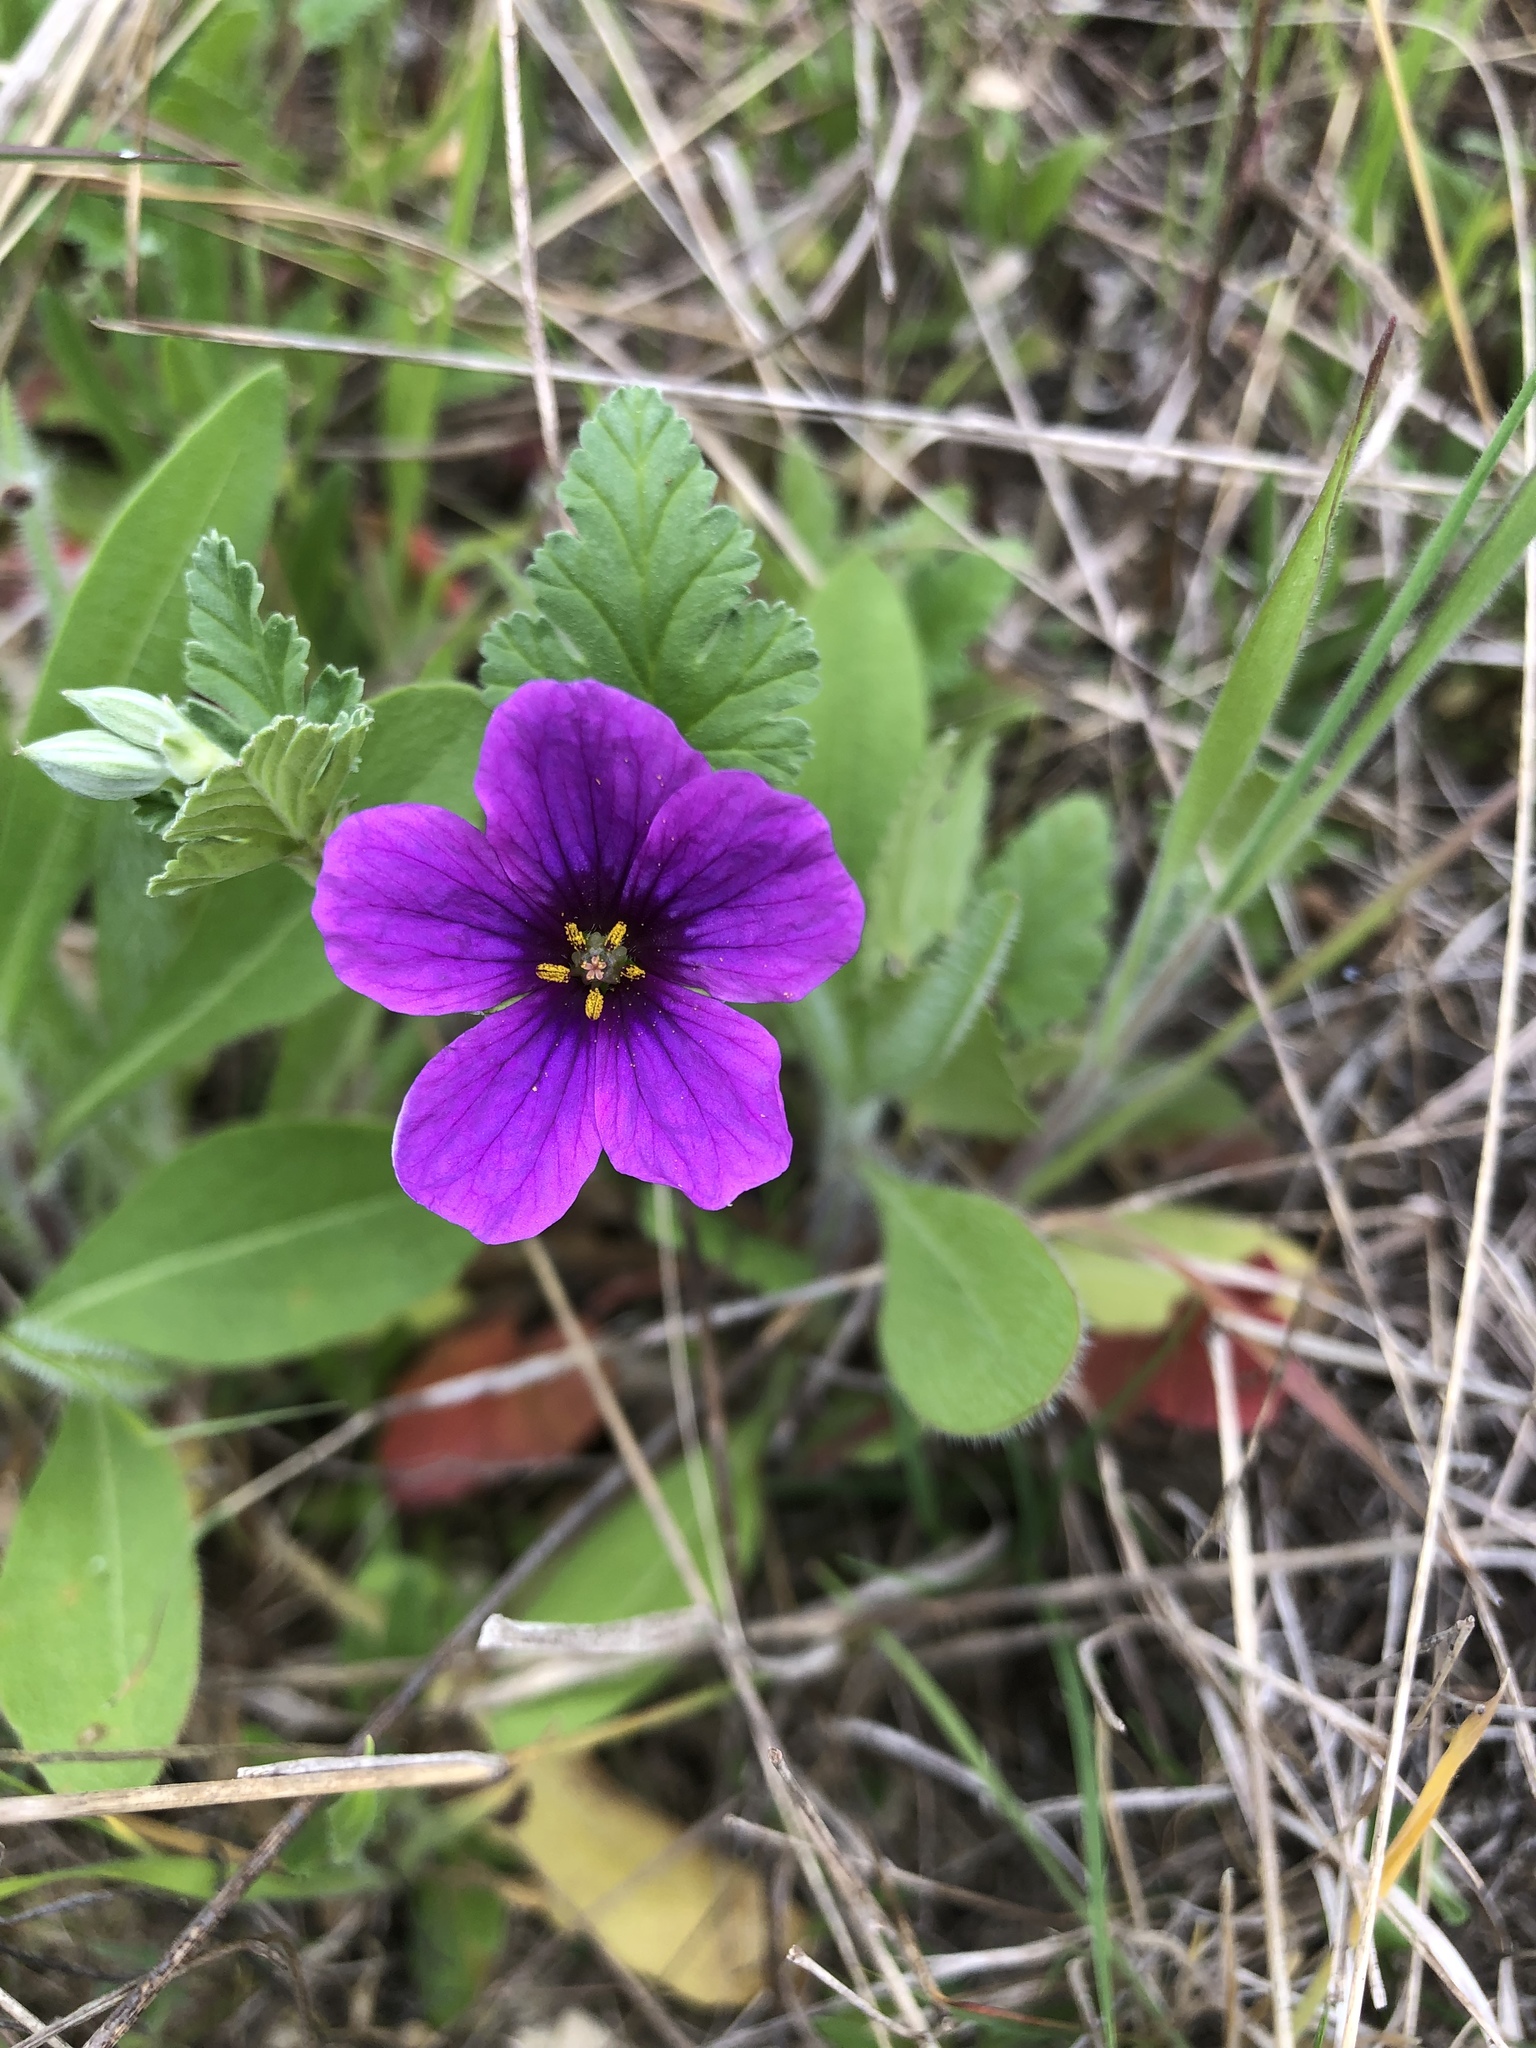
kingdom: Plantae
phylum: Tracheophyta
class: Magnoliopsida
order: Geraniales
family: Geraniaceae
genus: Erodium
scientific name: Erodium texanum
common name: Texas stork's-bill
